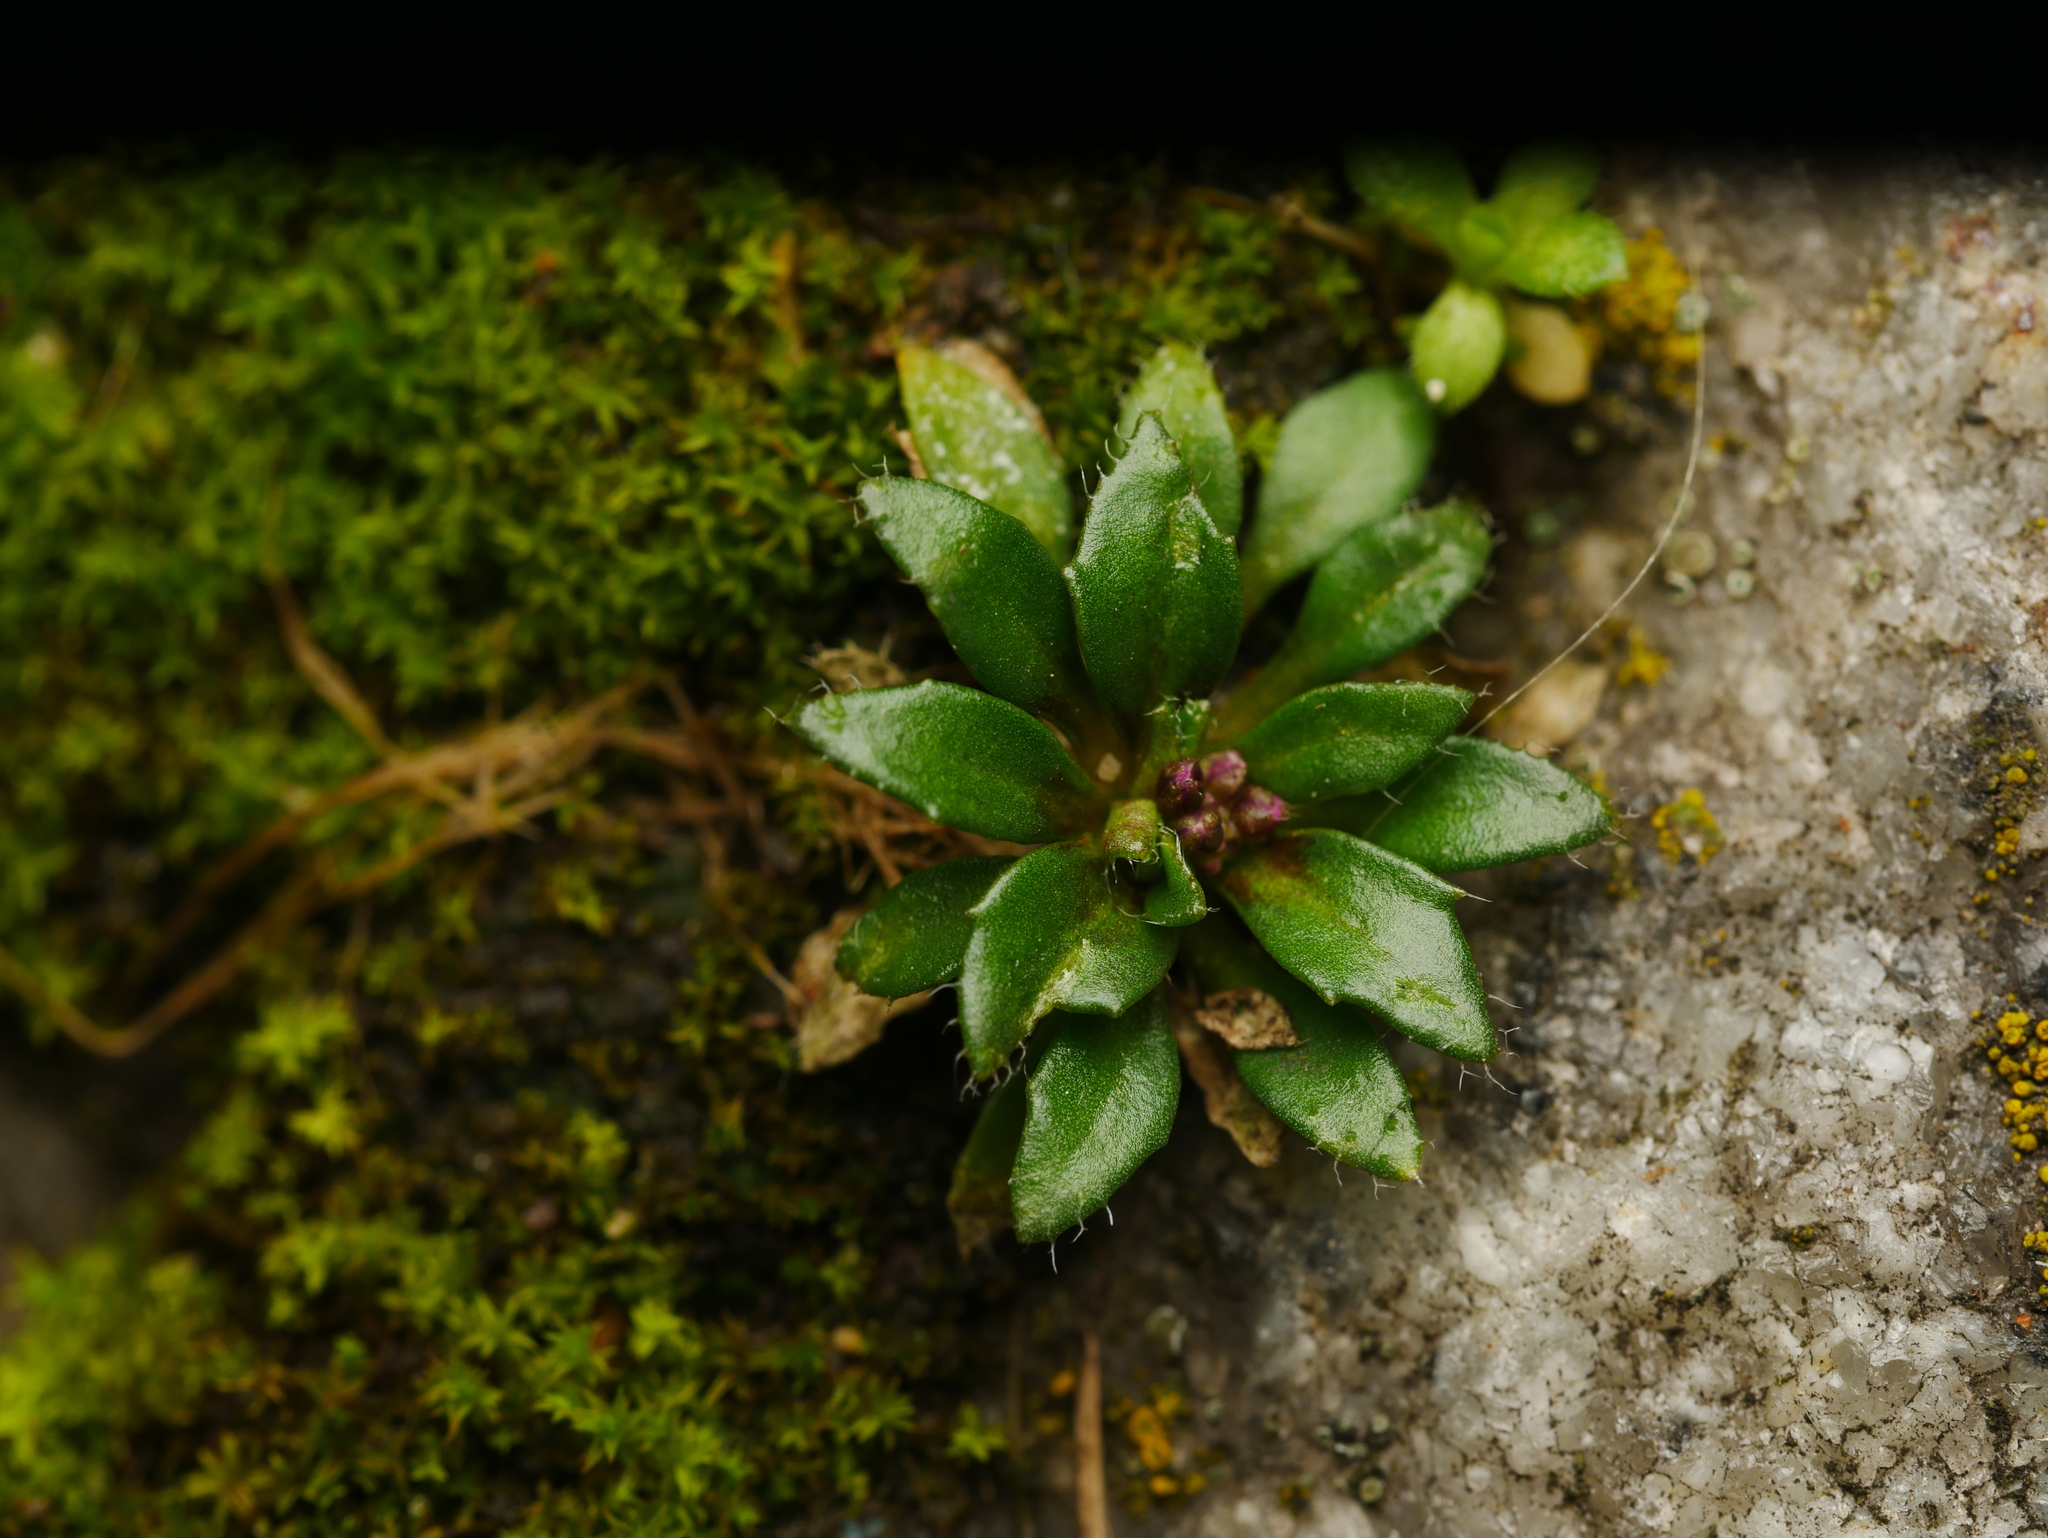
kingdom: Plantae
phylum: Tracheophyta
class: Magnoliopsida
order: Brassicales
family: Brassicaceae
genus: Draba
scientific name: Draba verna
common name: Spring draba
